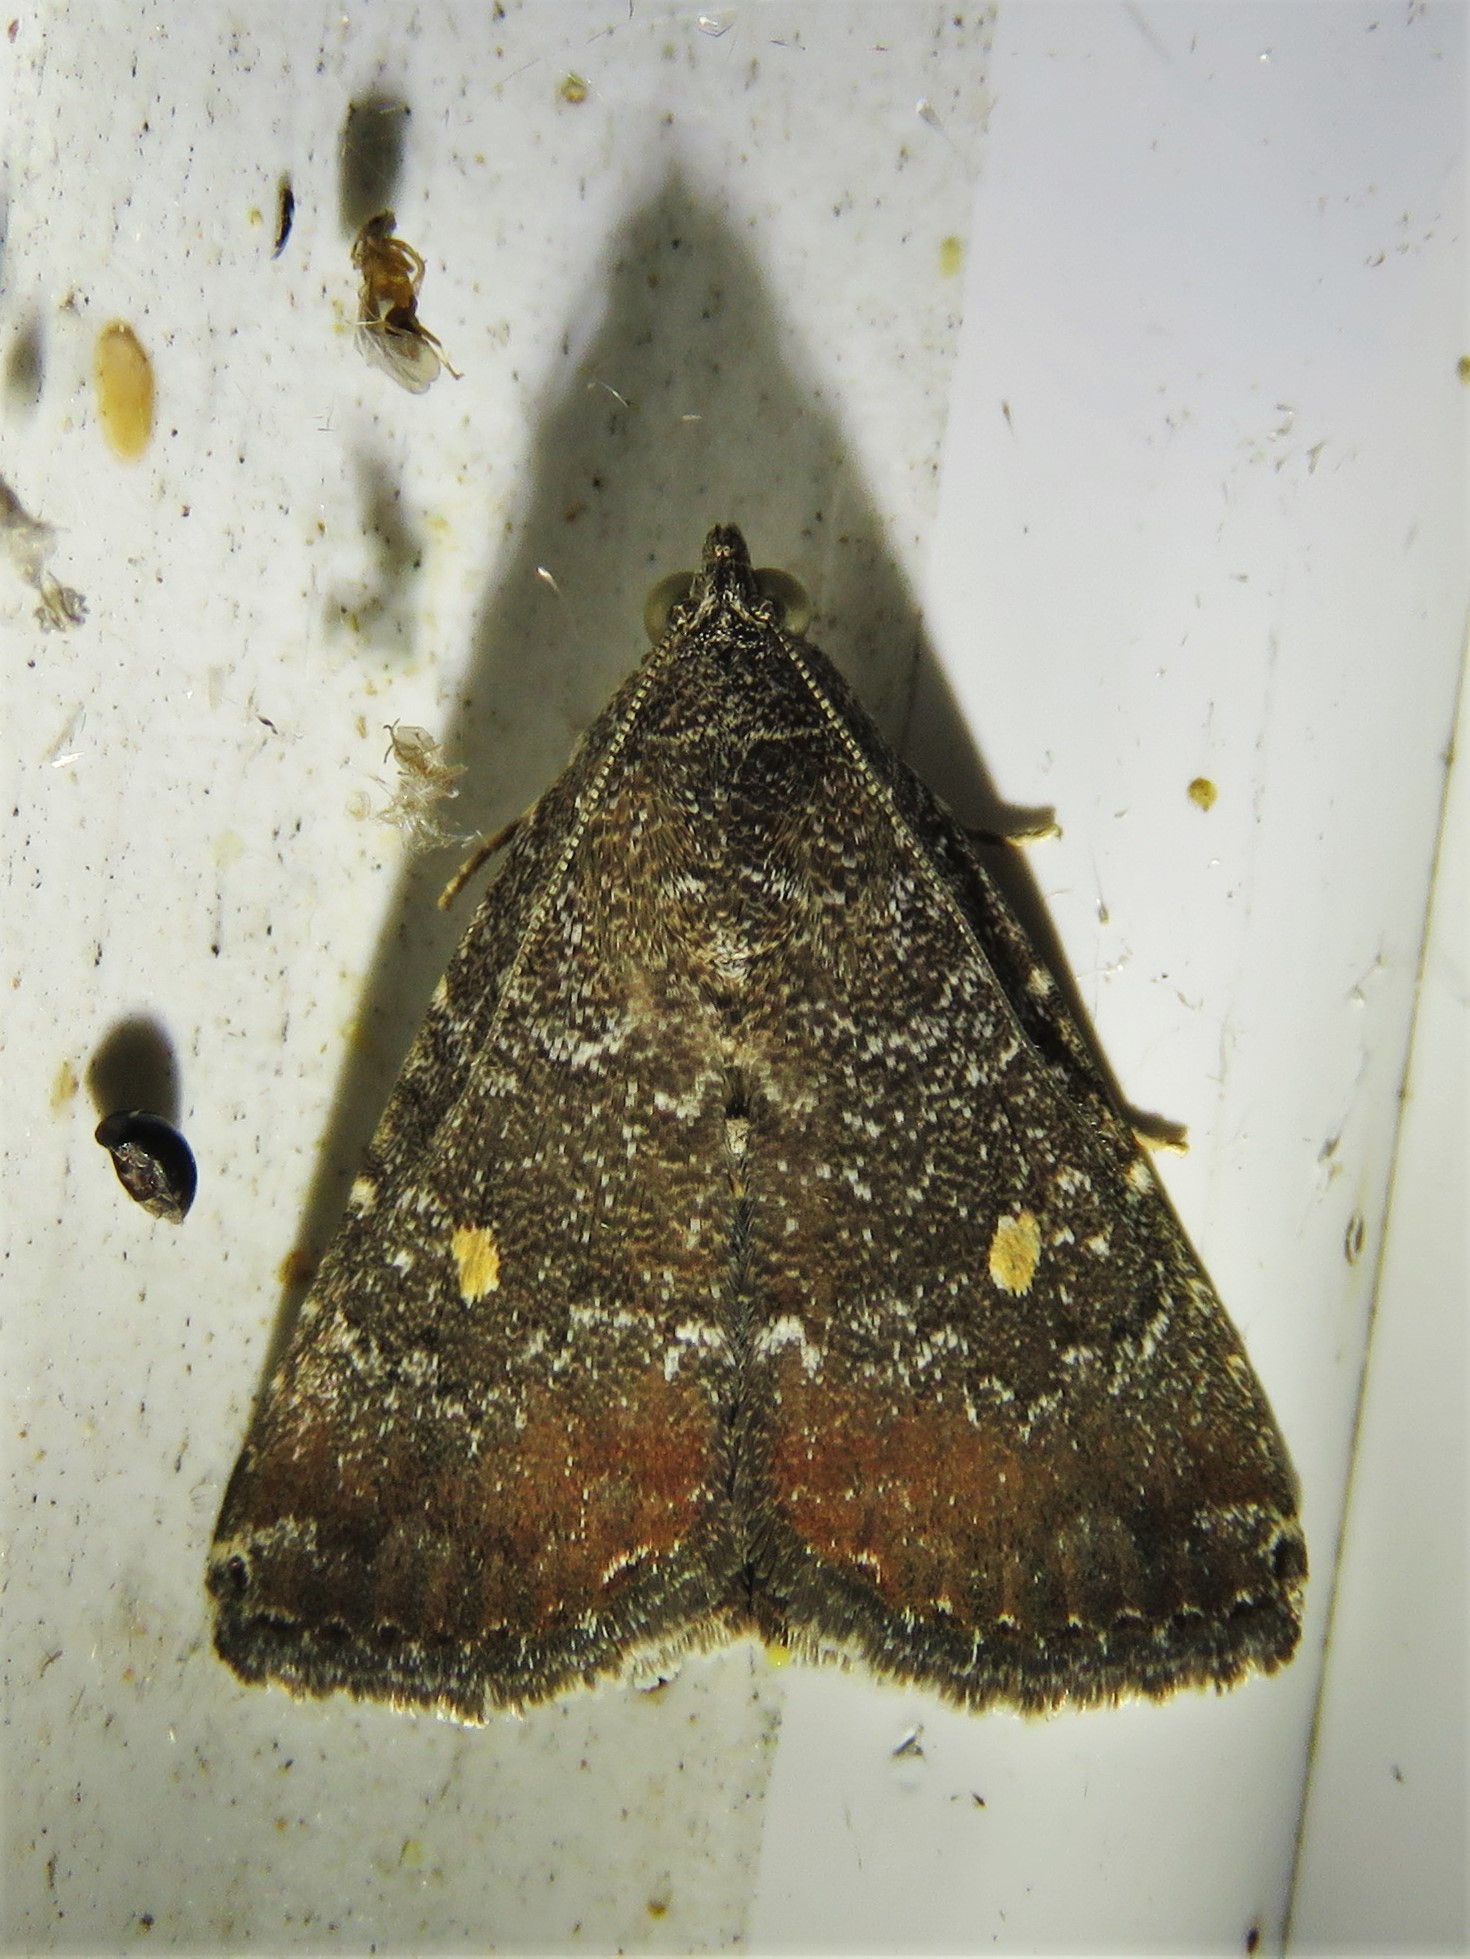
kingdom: Animalia
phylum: Arthropoda
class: Insecta
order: Lepidoptera
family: Noctuidae
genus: Amyna
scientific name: Amyna stricta
